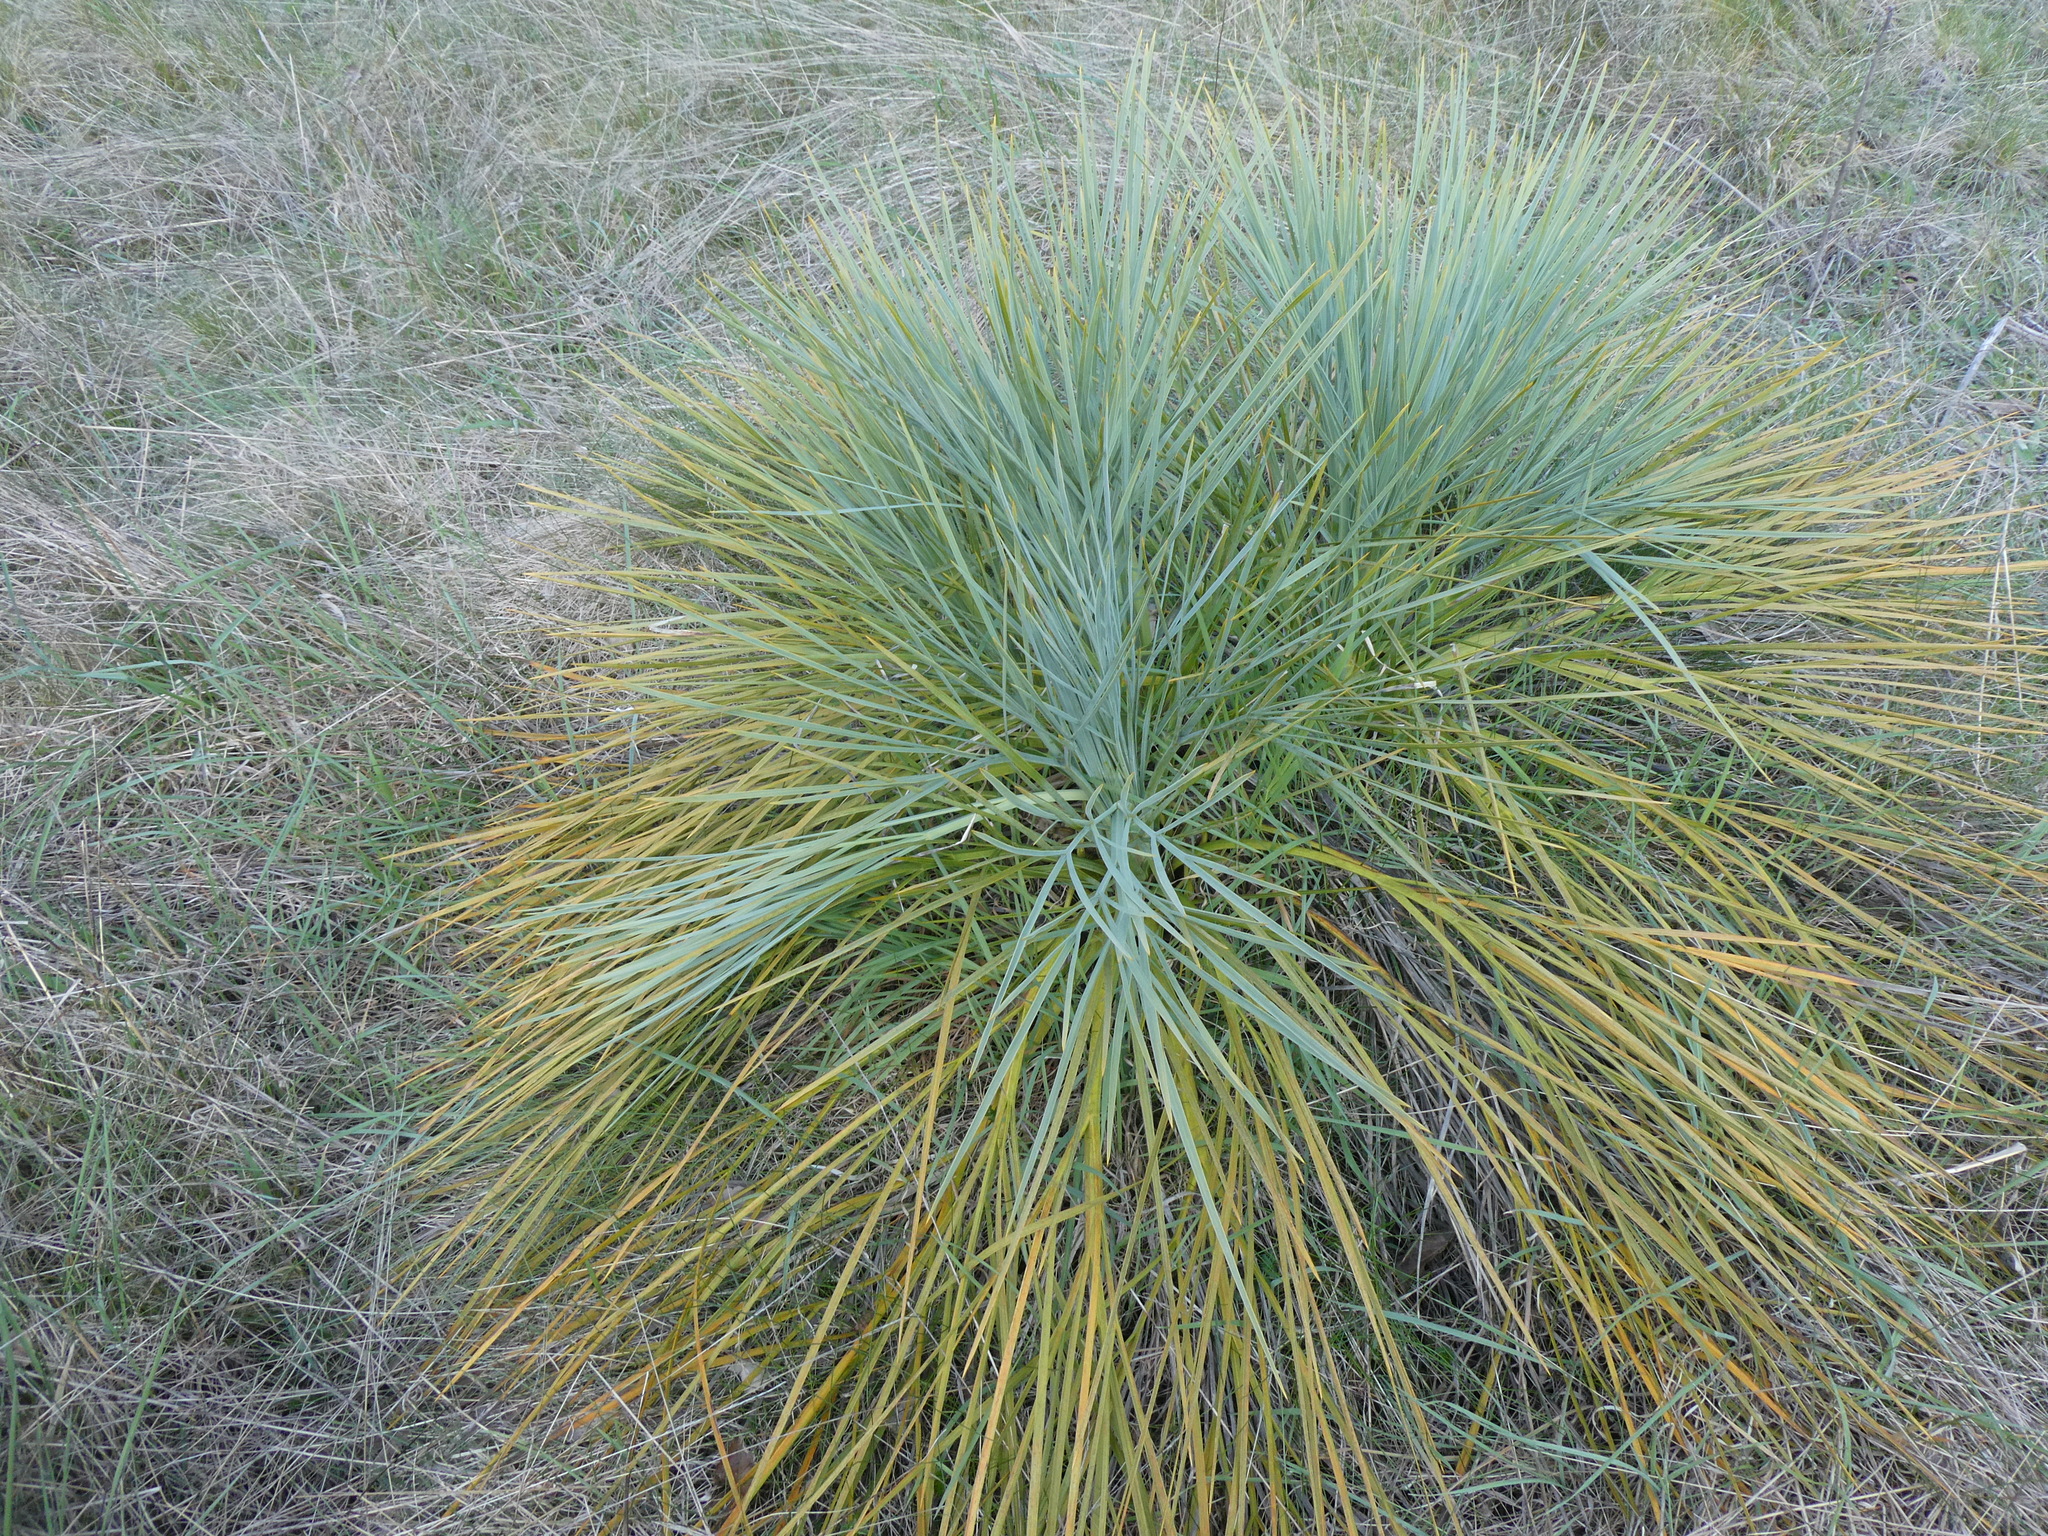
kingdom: Plantae
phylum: Tracheophyta
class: Magnoliopsida
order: Apiales
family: Apiaceae
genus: Aciphylla
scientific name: Aciphylla glaucescens
